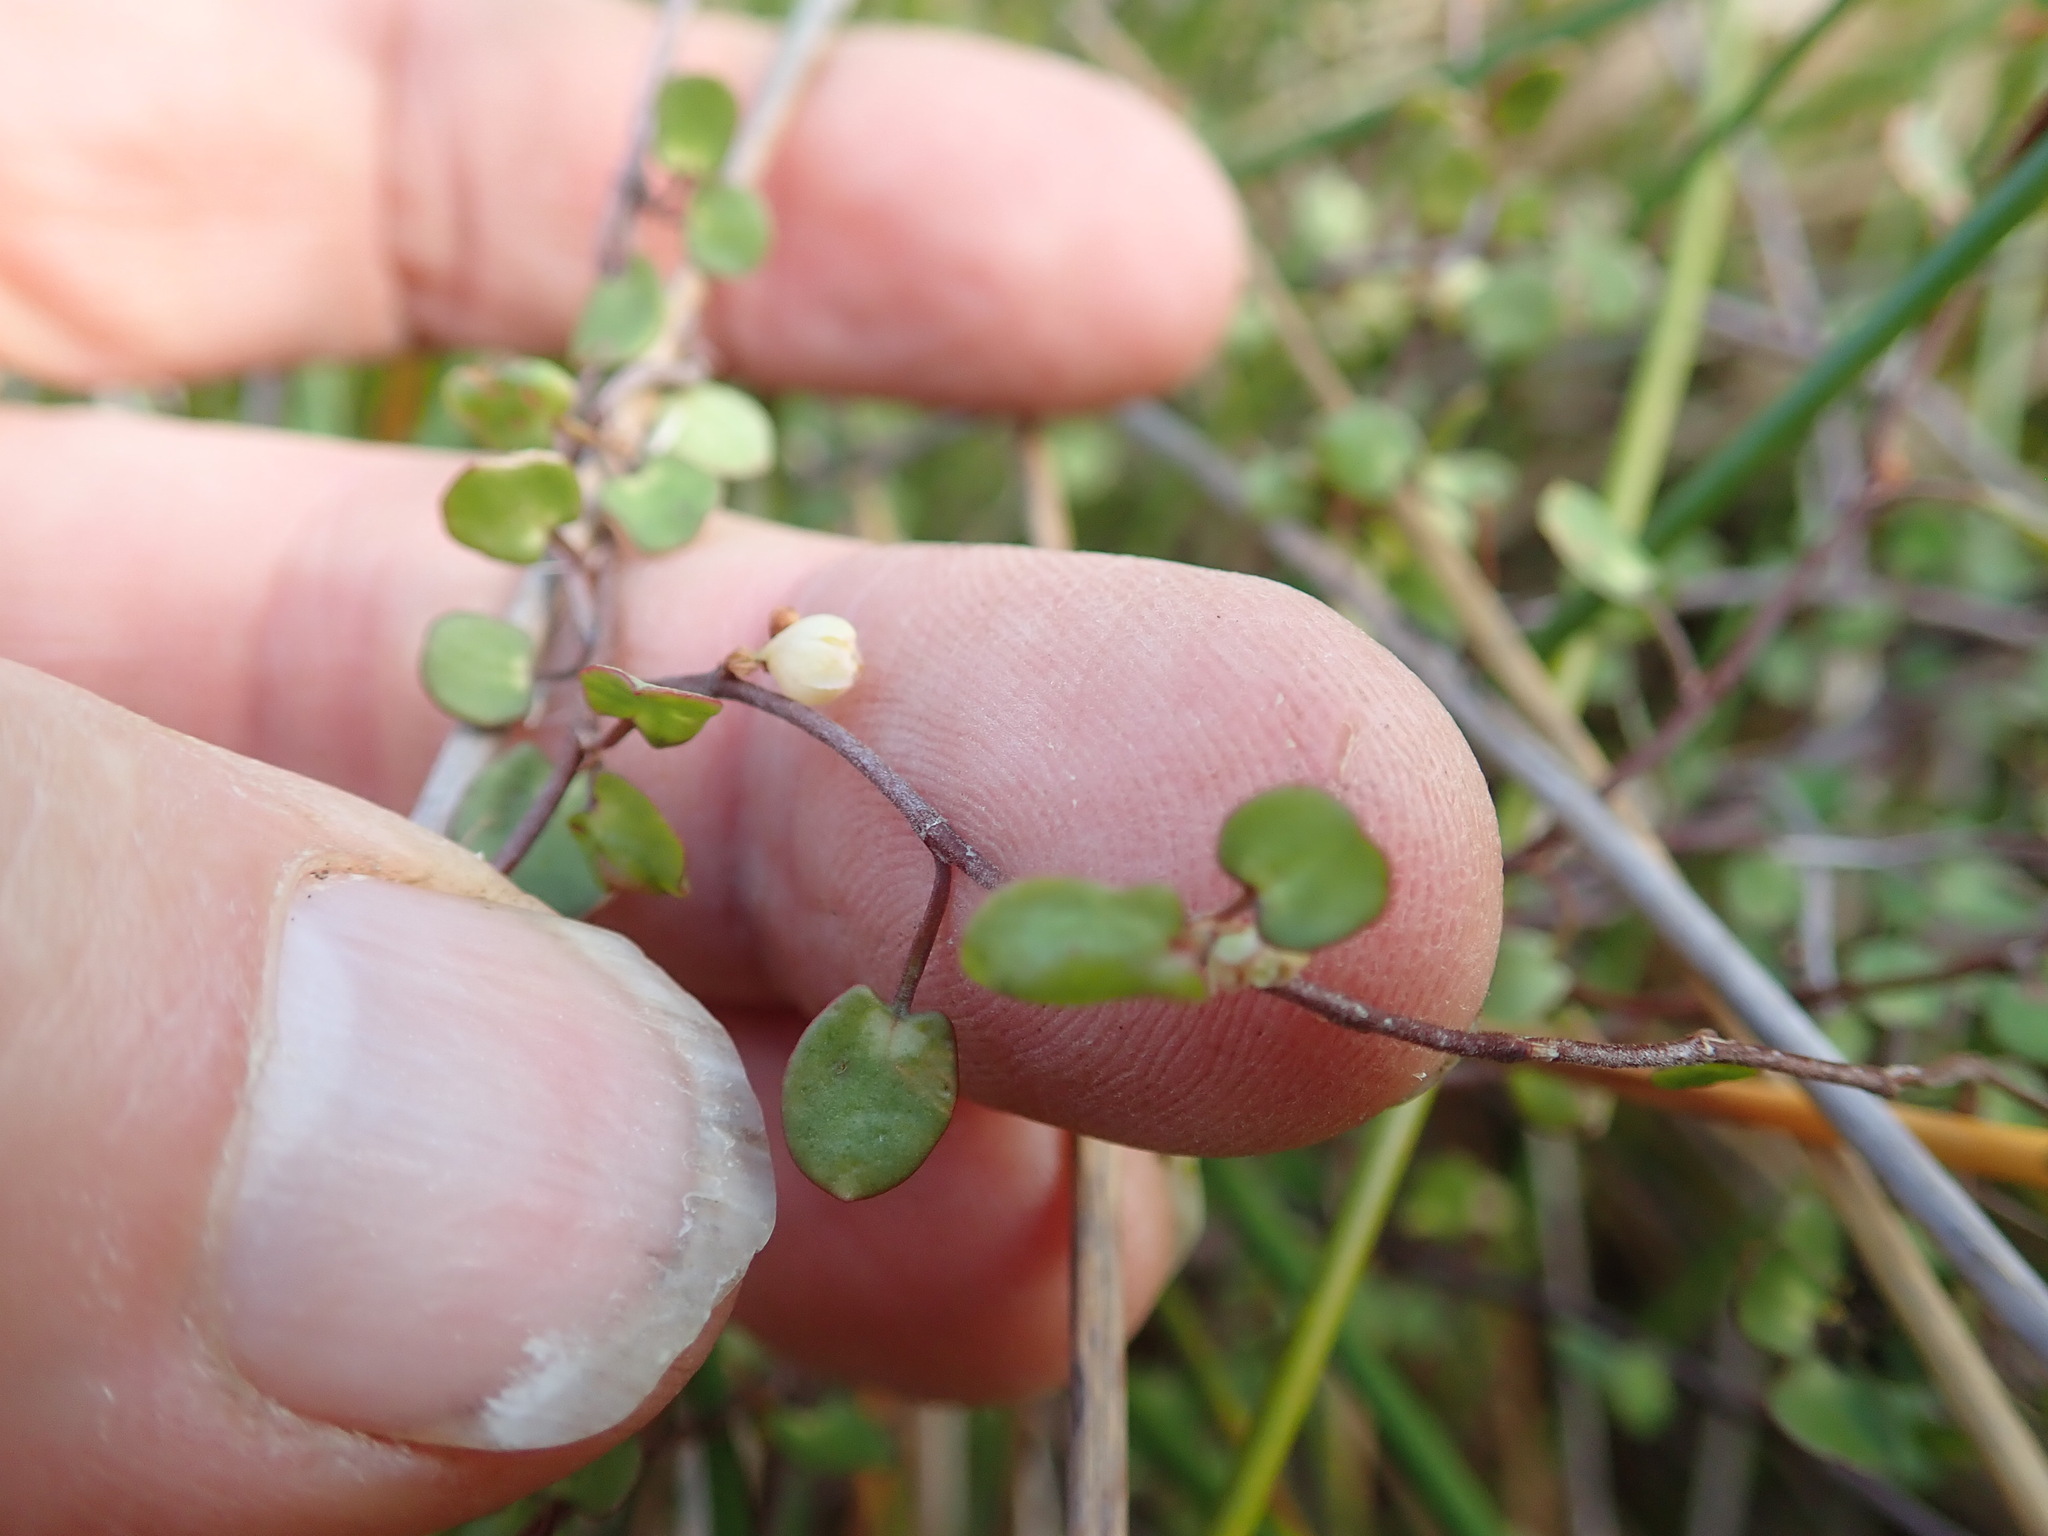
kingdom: Plantae
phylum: Tracheophyta
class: Magnoliopsida
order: Caryophyllales
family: Polygonaceae
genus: Muehlenbeckia
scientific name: Muehlenbeckia complexa
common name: Wireplant
